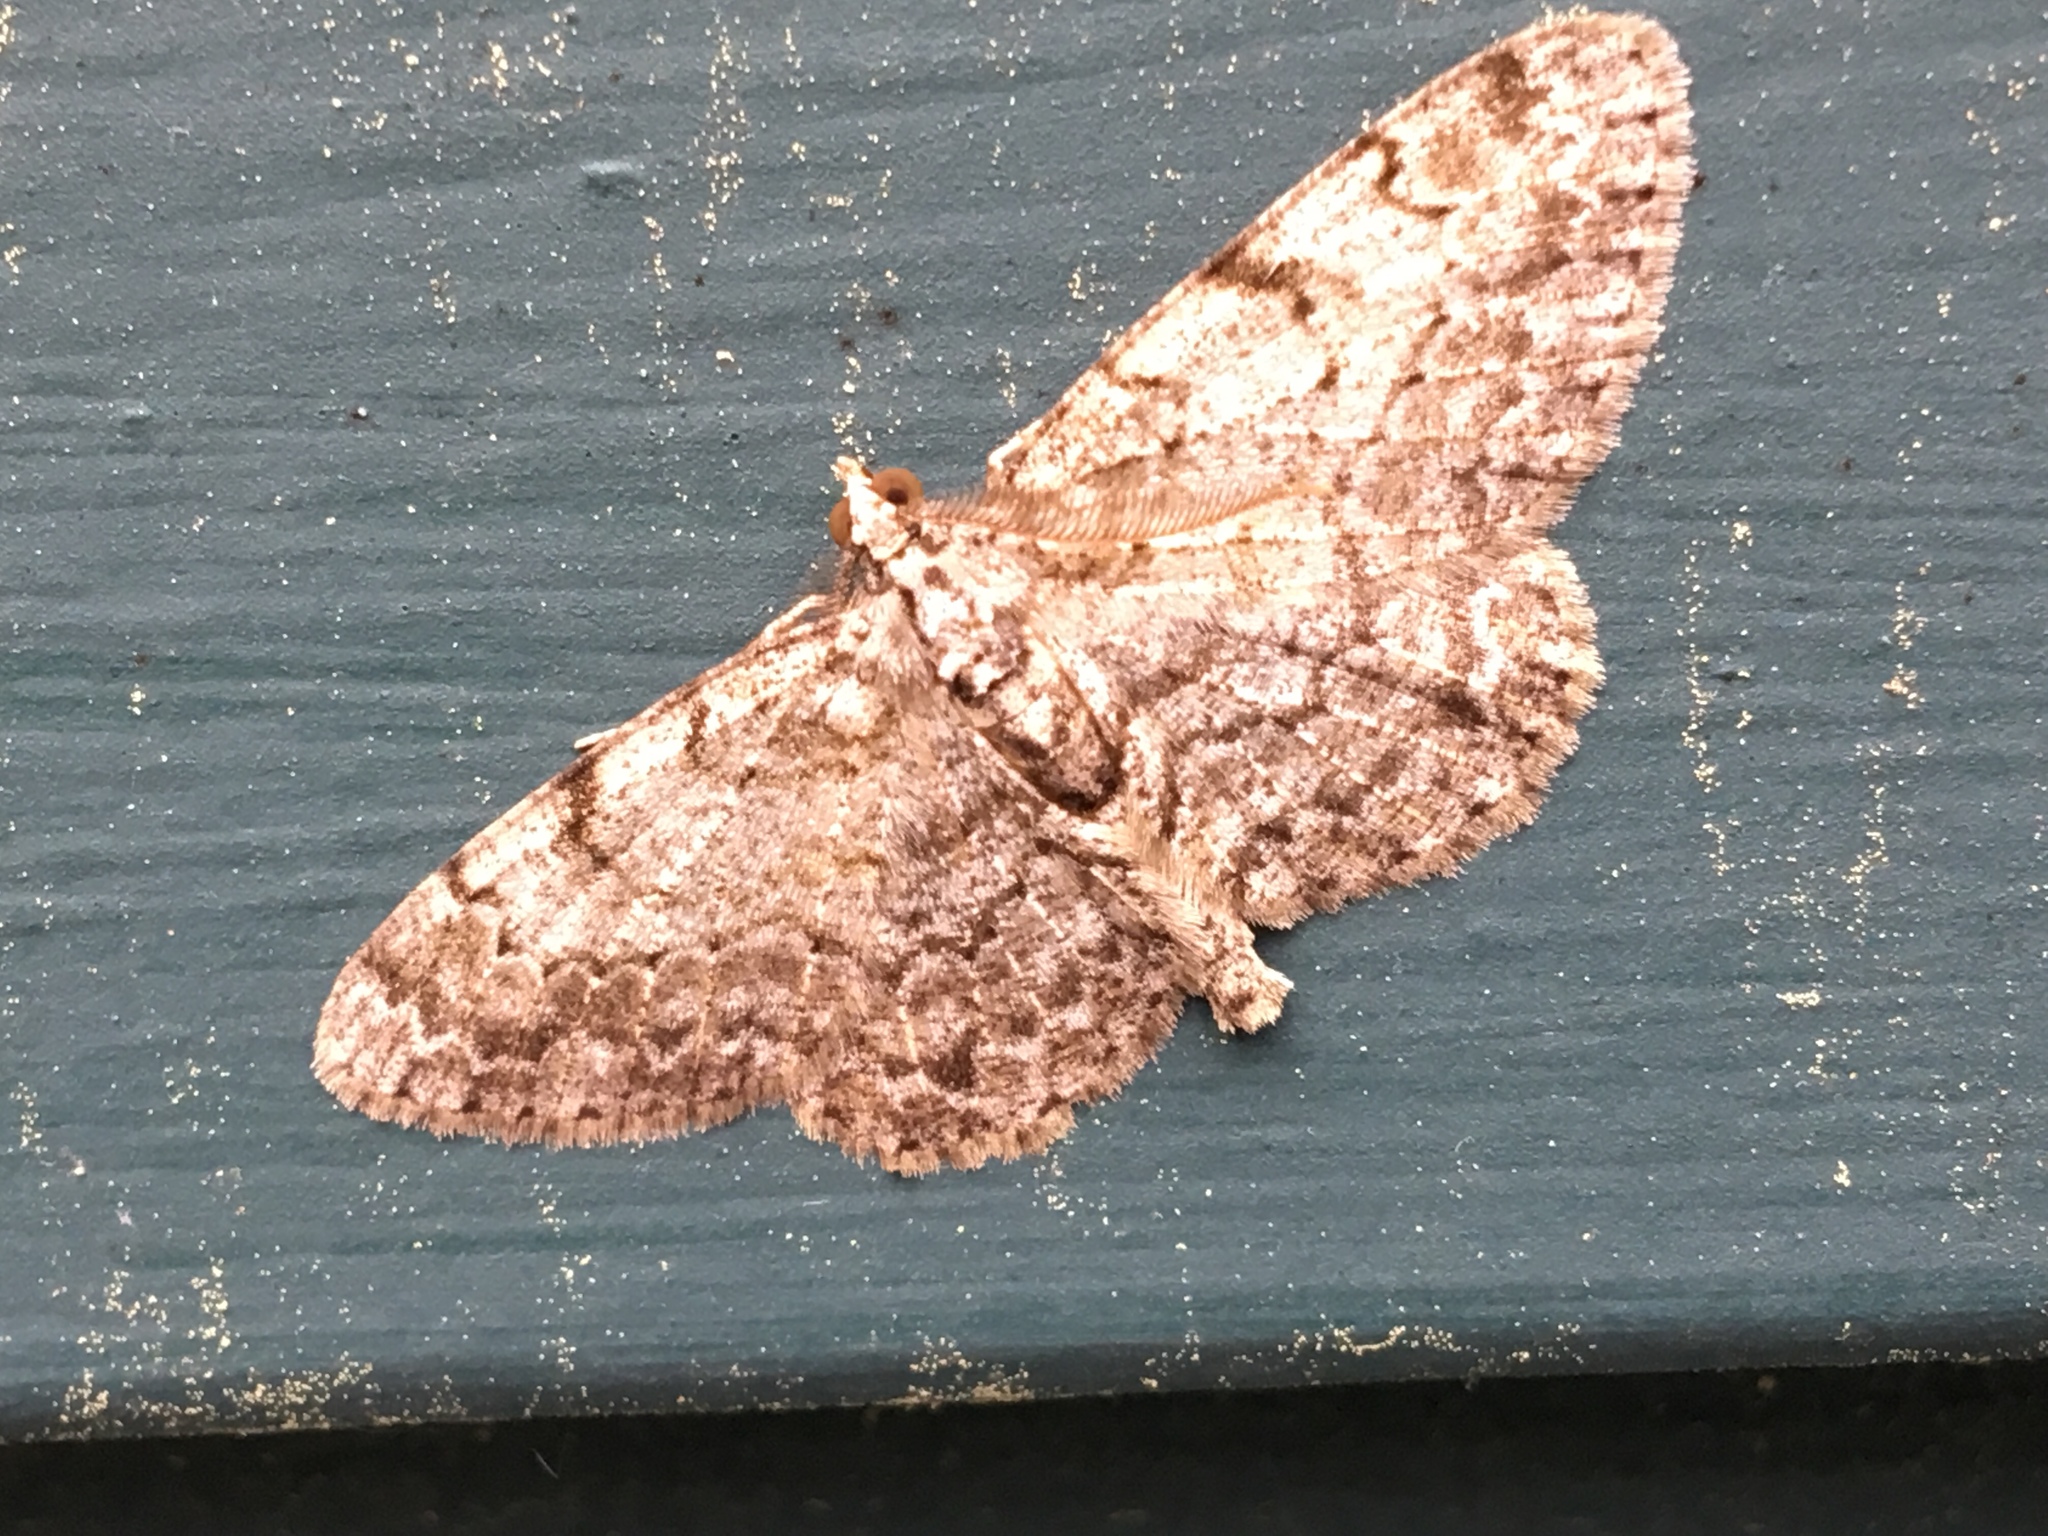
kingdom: Animalia
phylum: Arthropoda
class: Insecta
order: Lepidoptera
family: Geometridae
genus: Protoboarmia
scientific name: Protoboarmia porcelaria
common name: Porcelain gray
